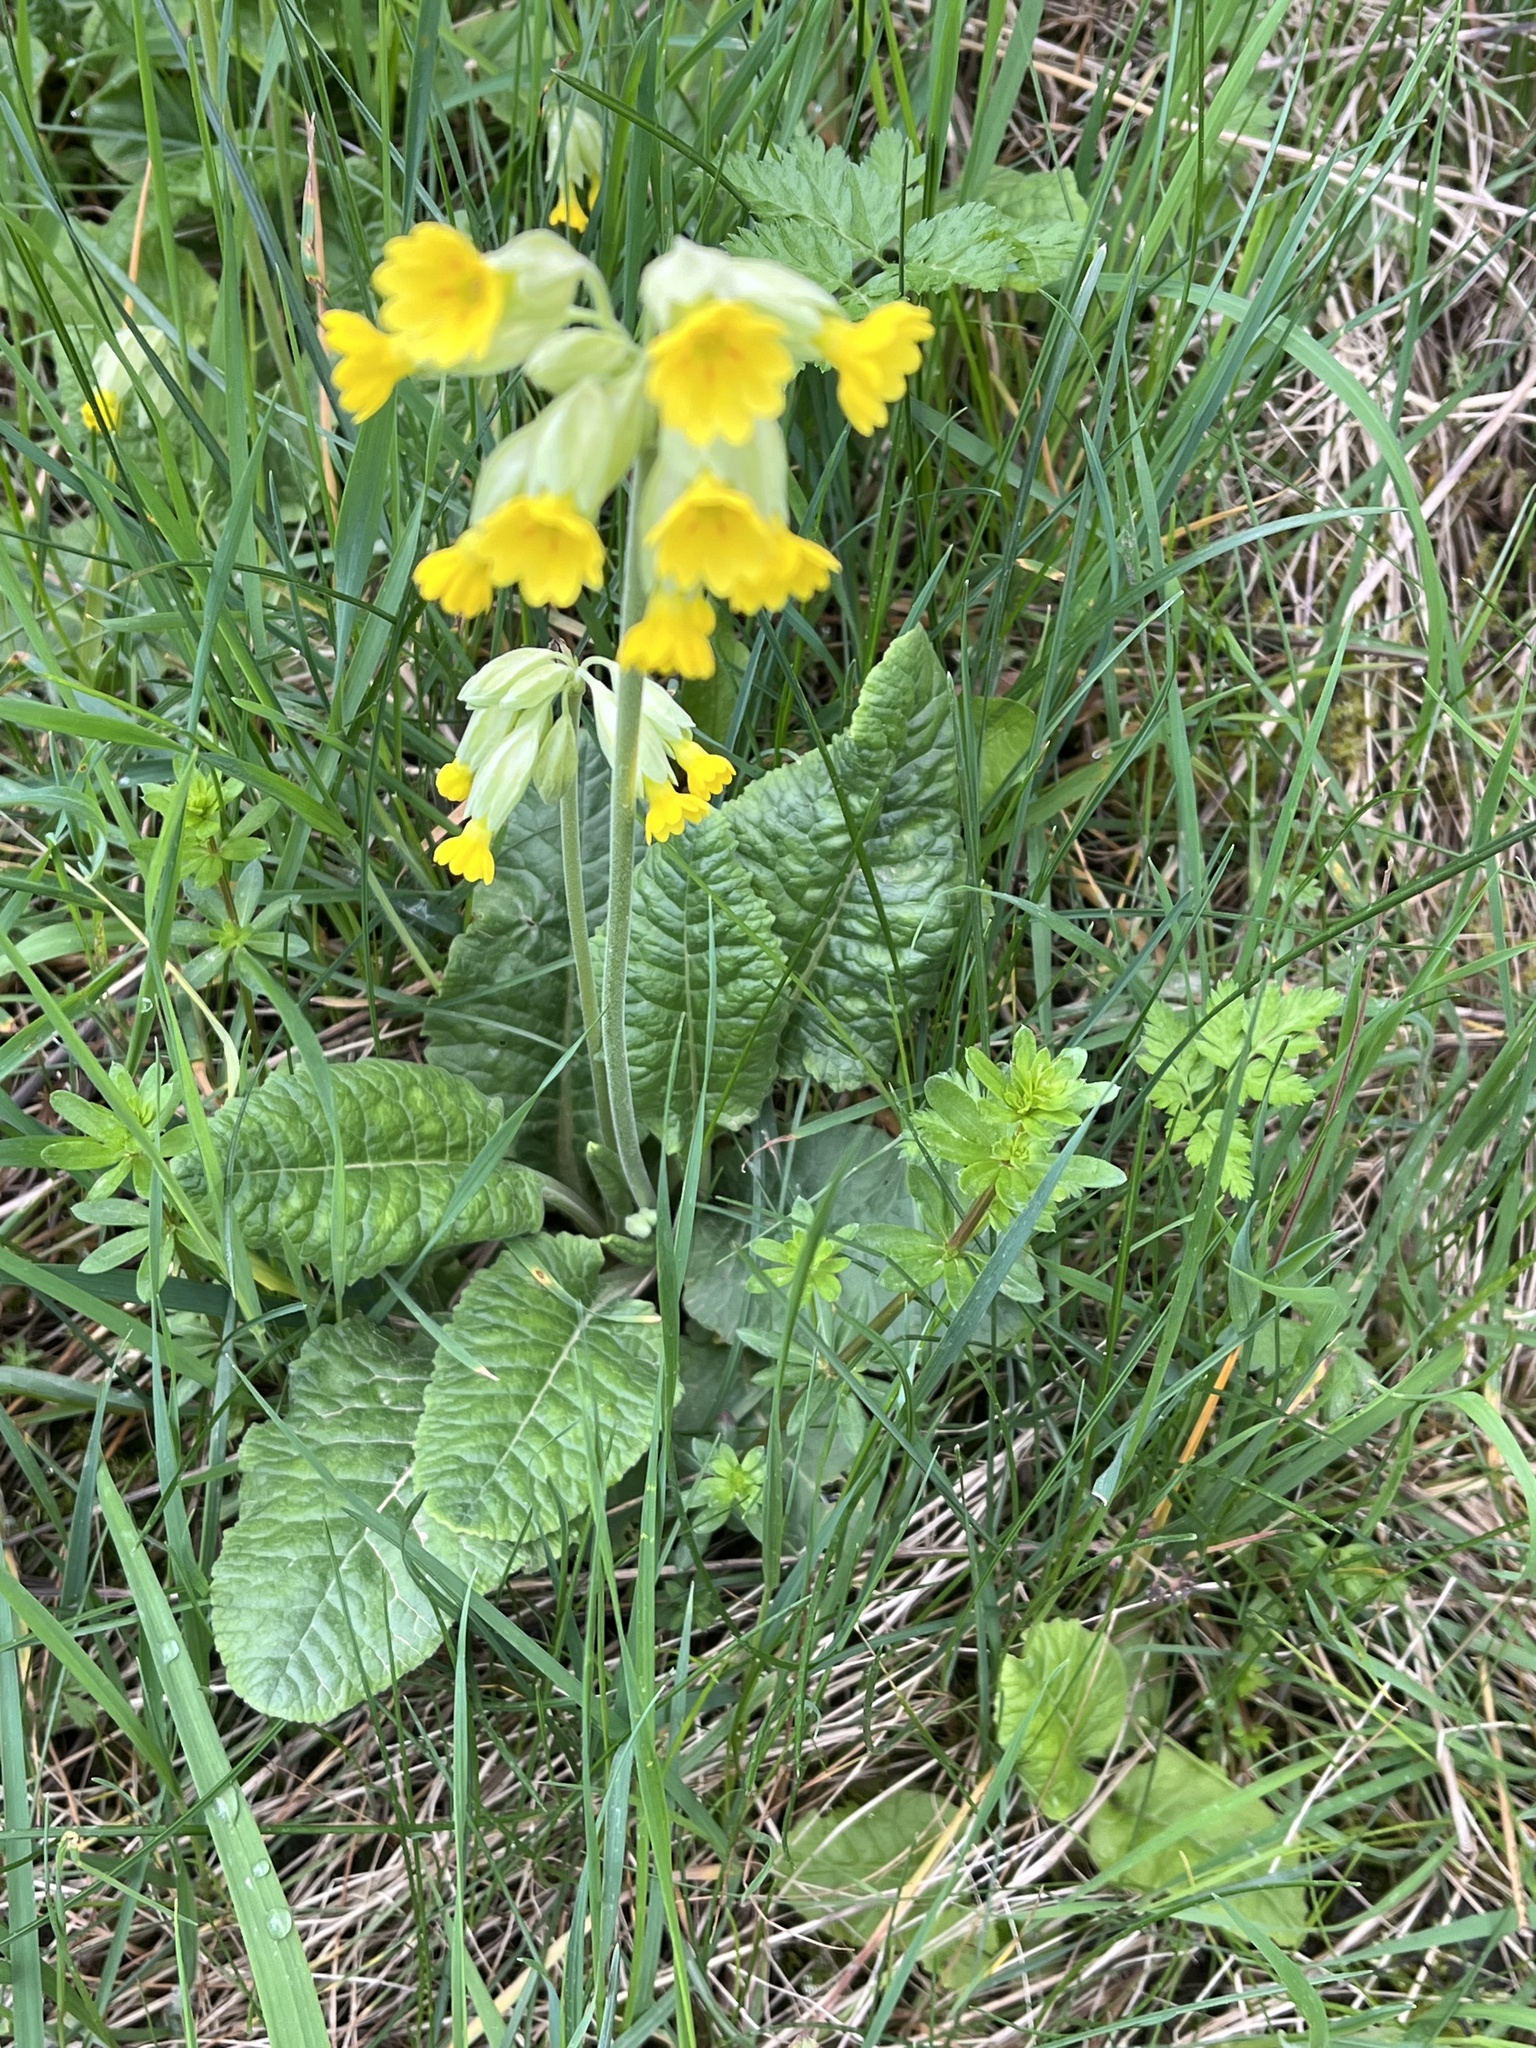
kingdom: Plantae
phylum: Tracheophyta
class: Magnoliopsida
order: Ericales
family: Primulaceae
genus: Primula
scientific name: Primula veris
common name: Cowslip
